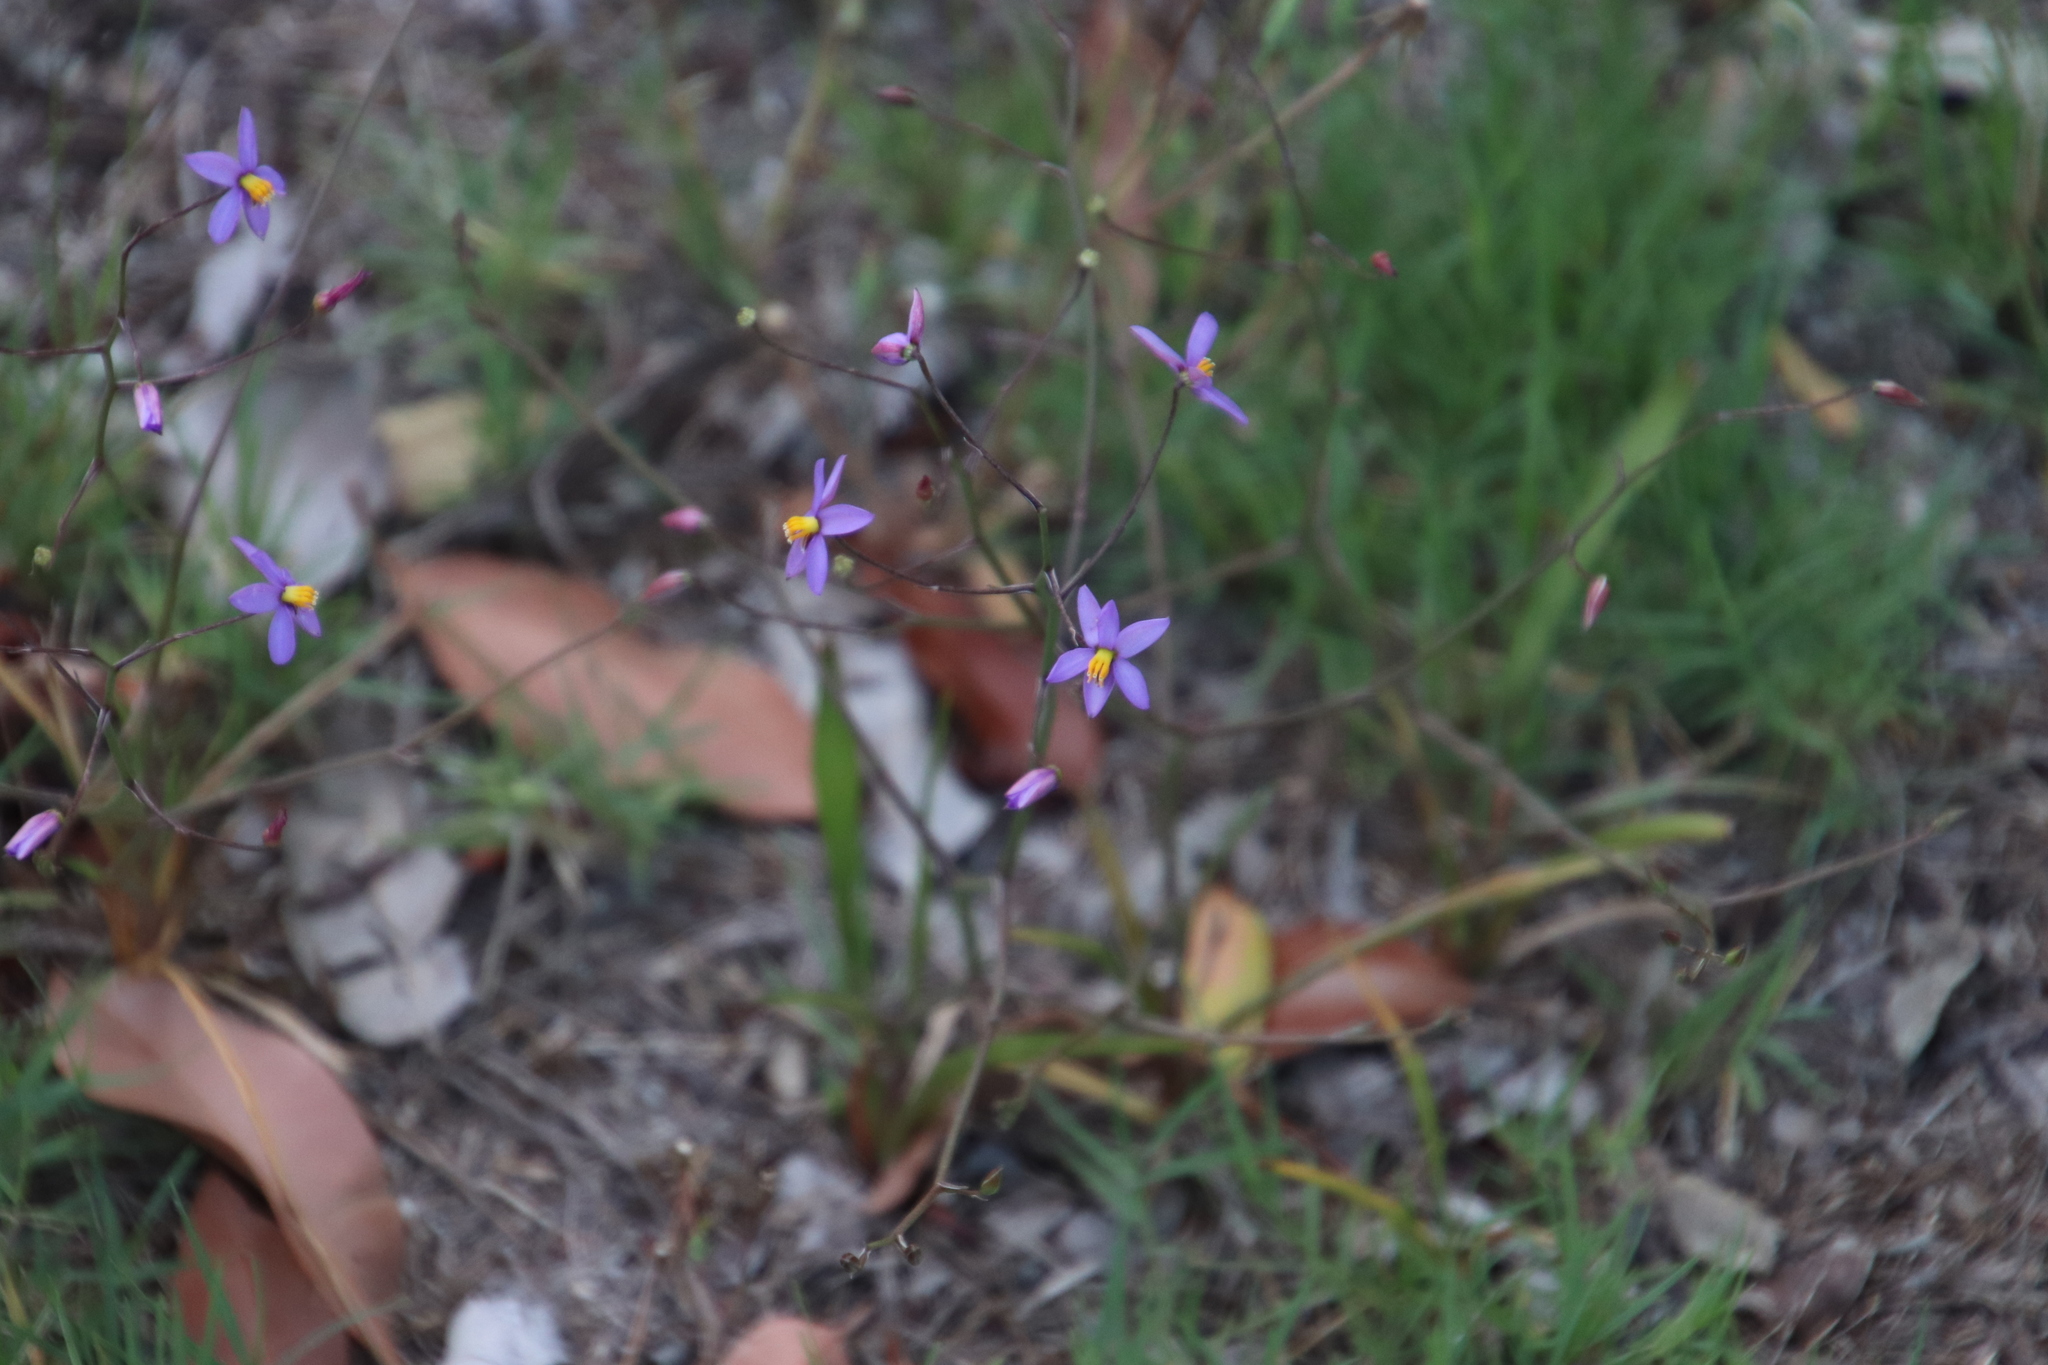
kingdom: Plantae
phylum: Tracheophyta
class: Liliopsida
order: Asparagales
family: Tecophilaeaceae
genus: Cyanella
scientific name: Cyanella hyacinthoides
